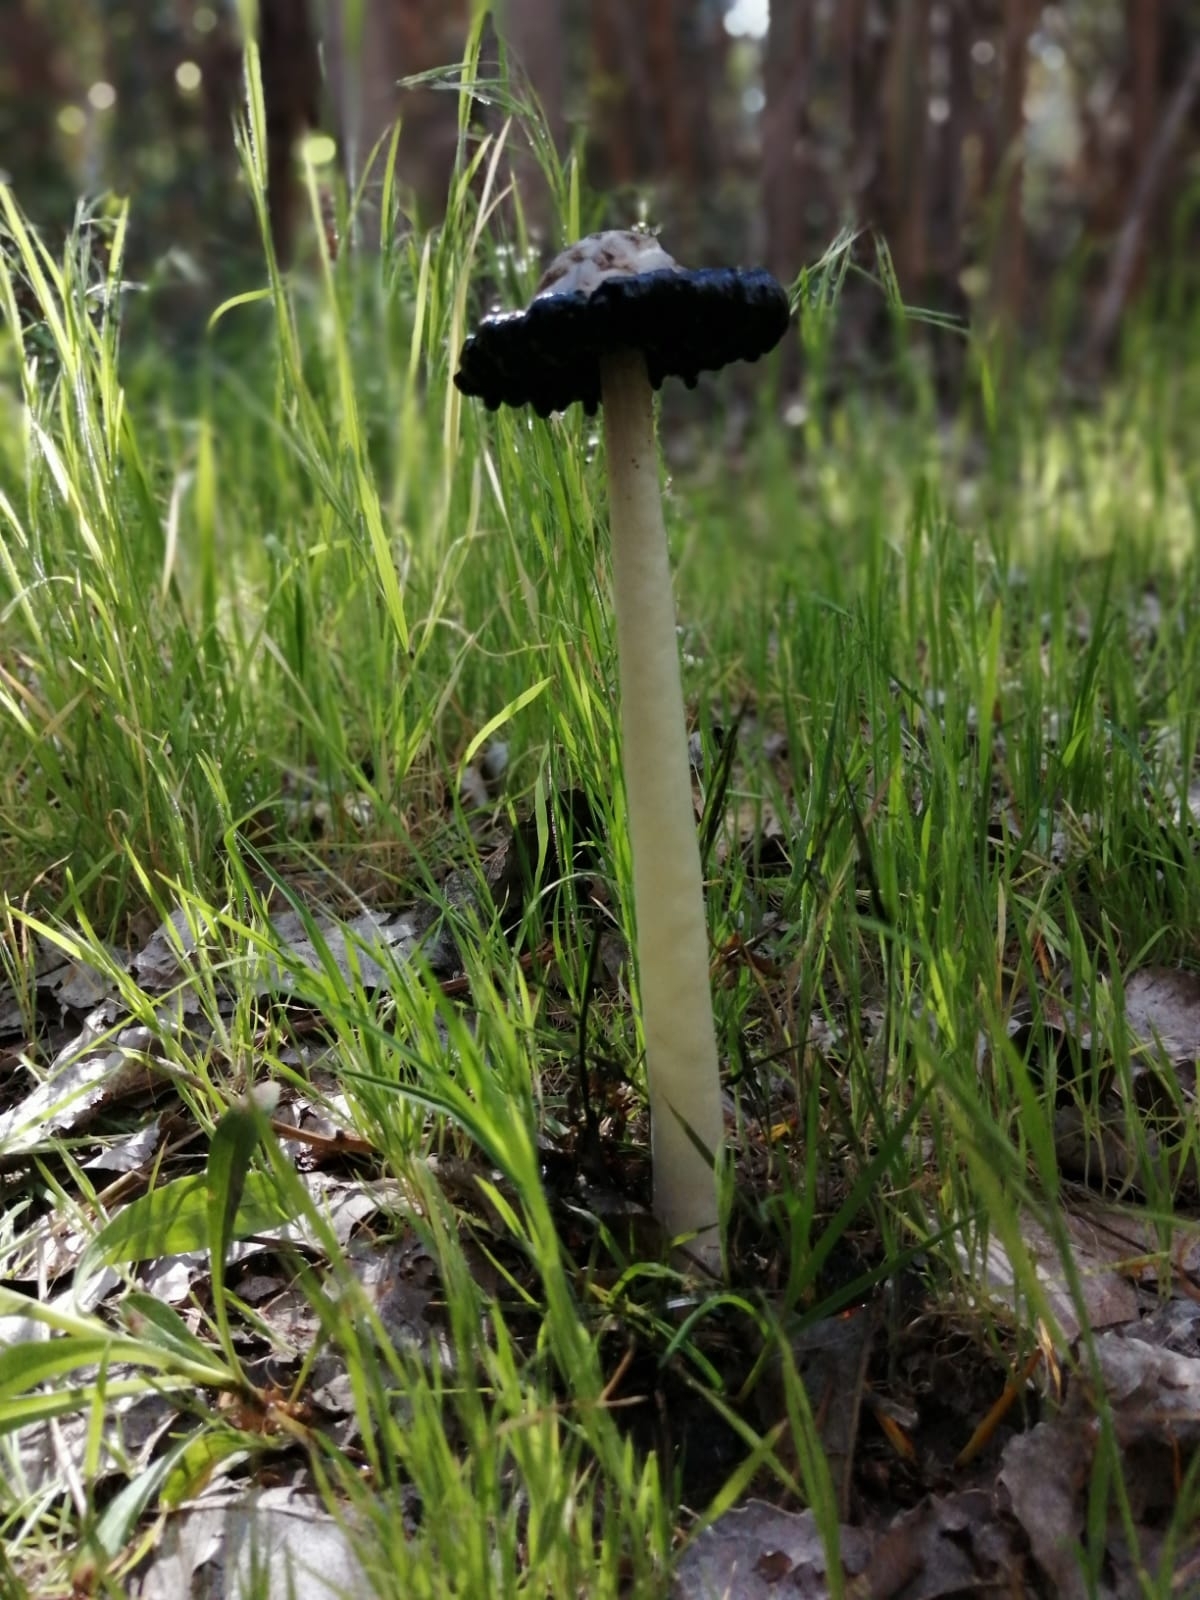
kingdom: Fungi
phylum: Basidiomycota
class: Agaricomycetes
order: Agaricales
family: Agaricaceae
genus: Coprinus
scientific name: Coprinus comatus
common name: Lawyer's wig
